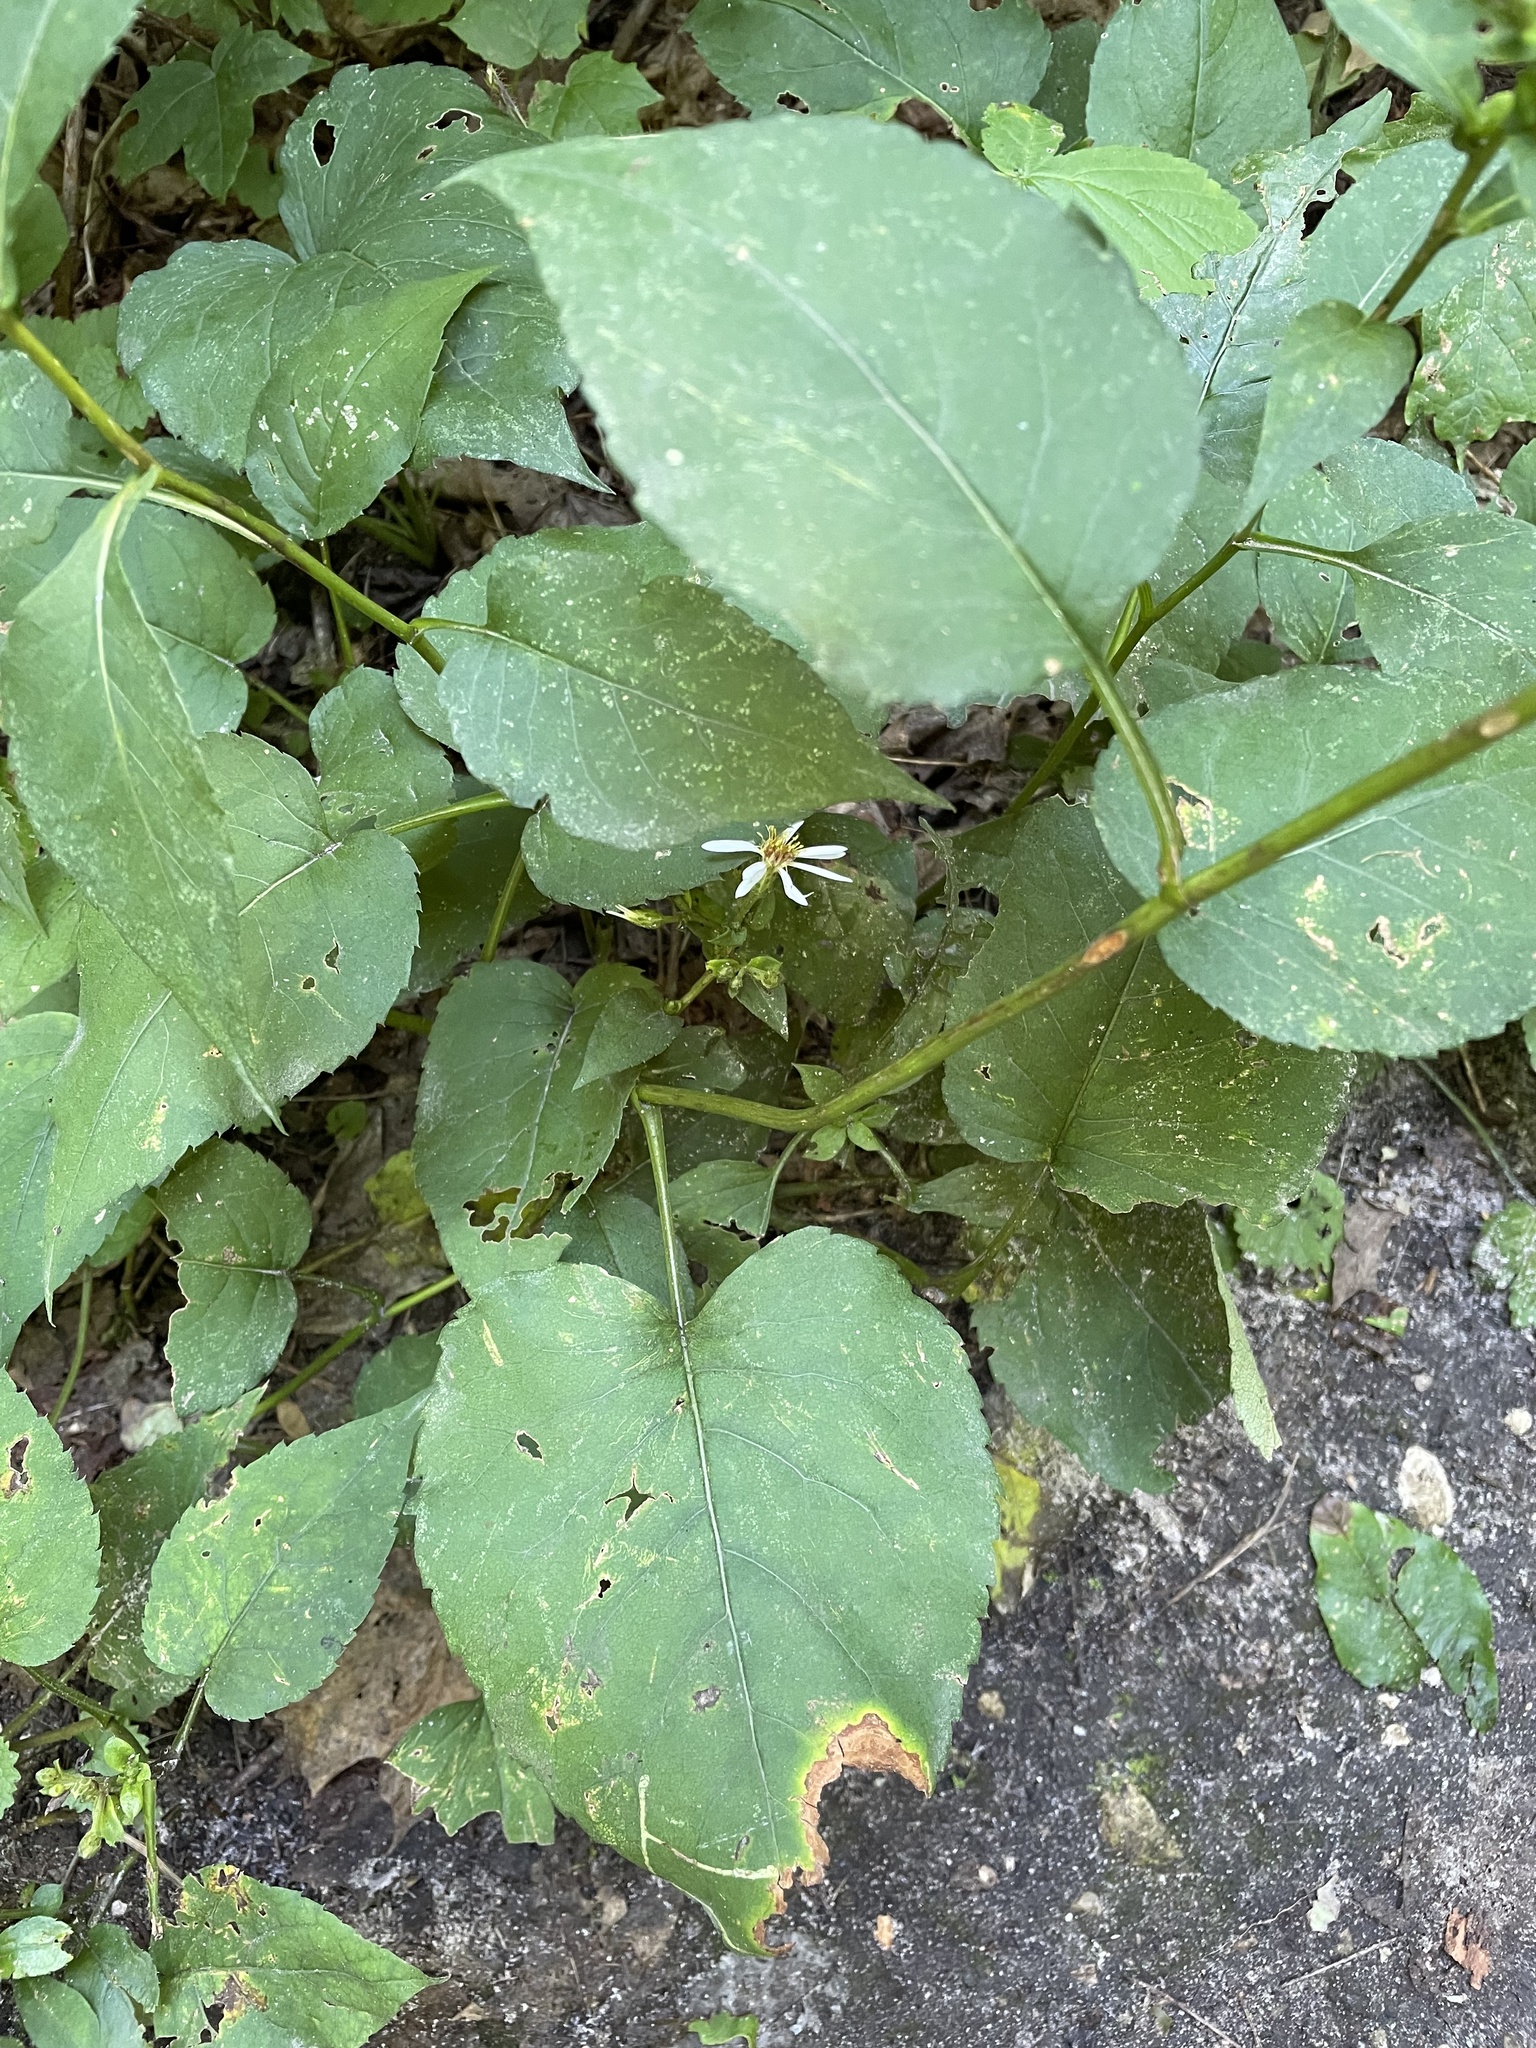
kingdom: Plantae
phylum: Tracheophyta
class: Magnoliopsida
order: Asterales
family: Asteraceae
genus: Eurybia
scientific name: Eurybia macrophylla
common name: Big-leaved aster
